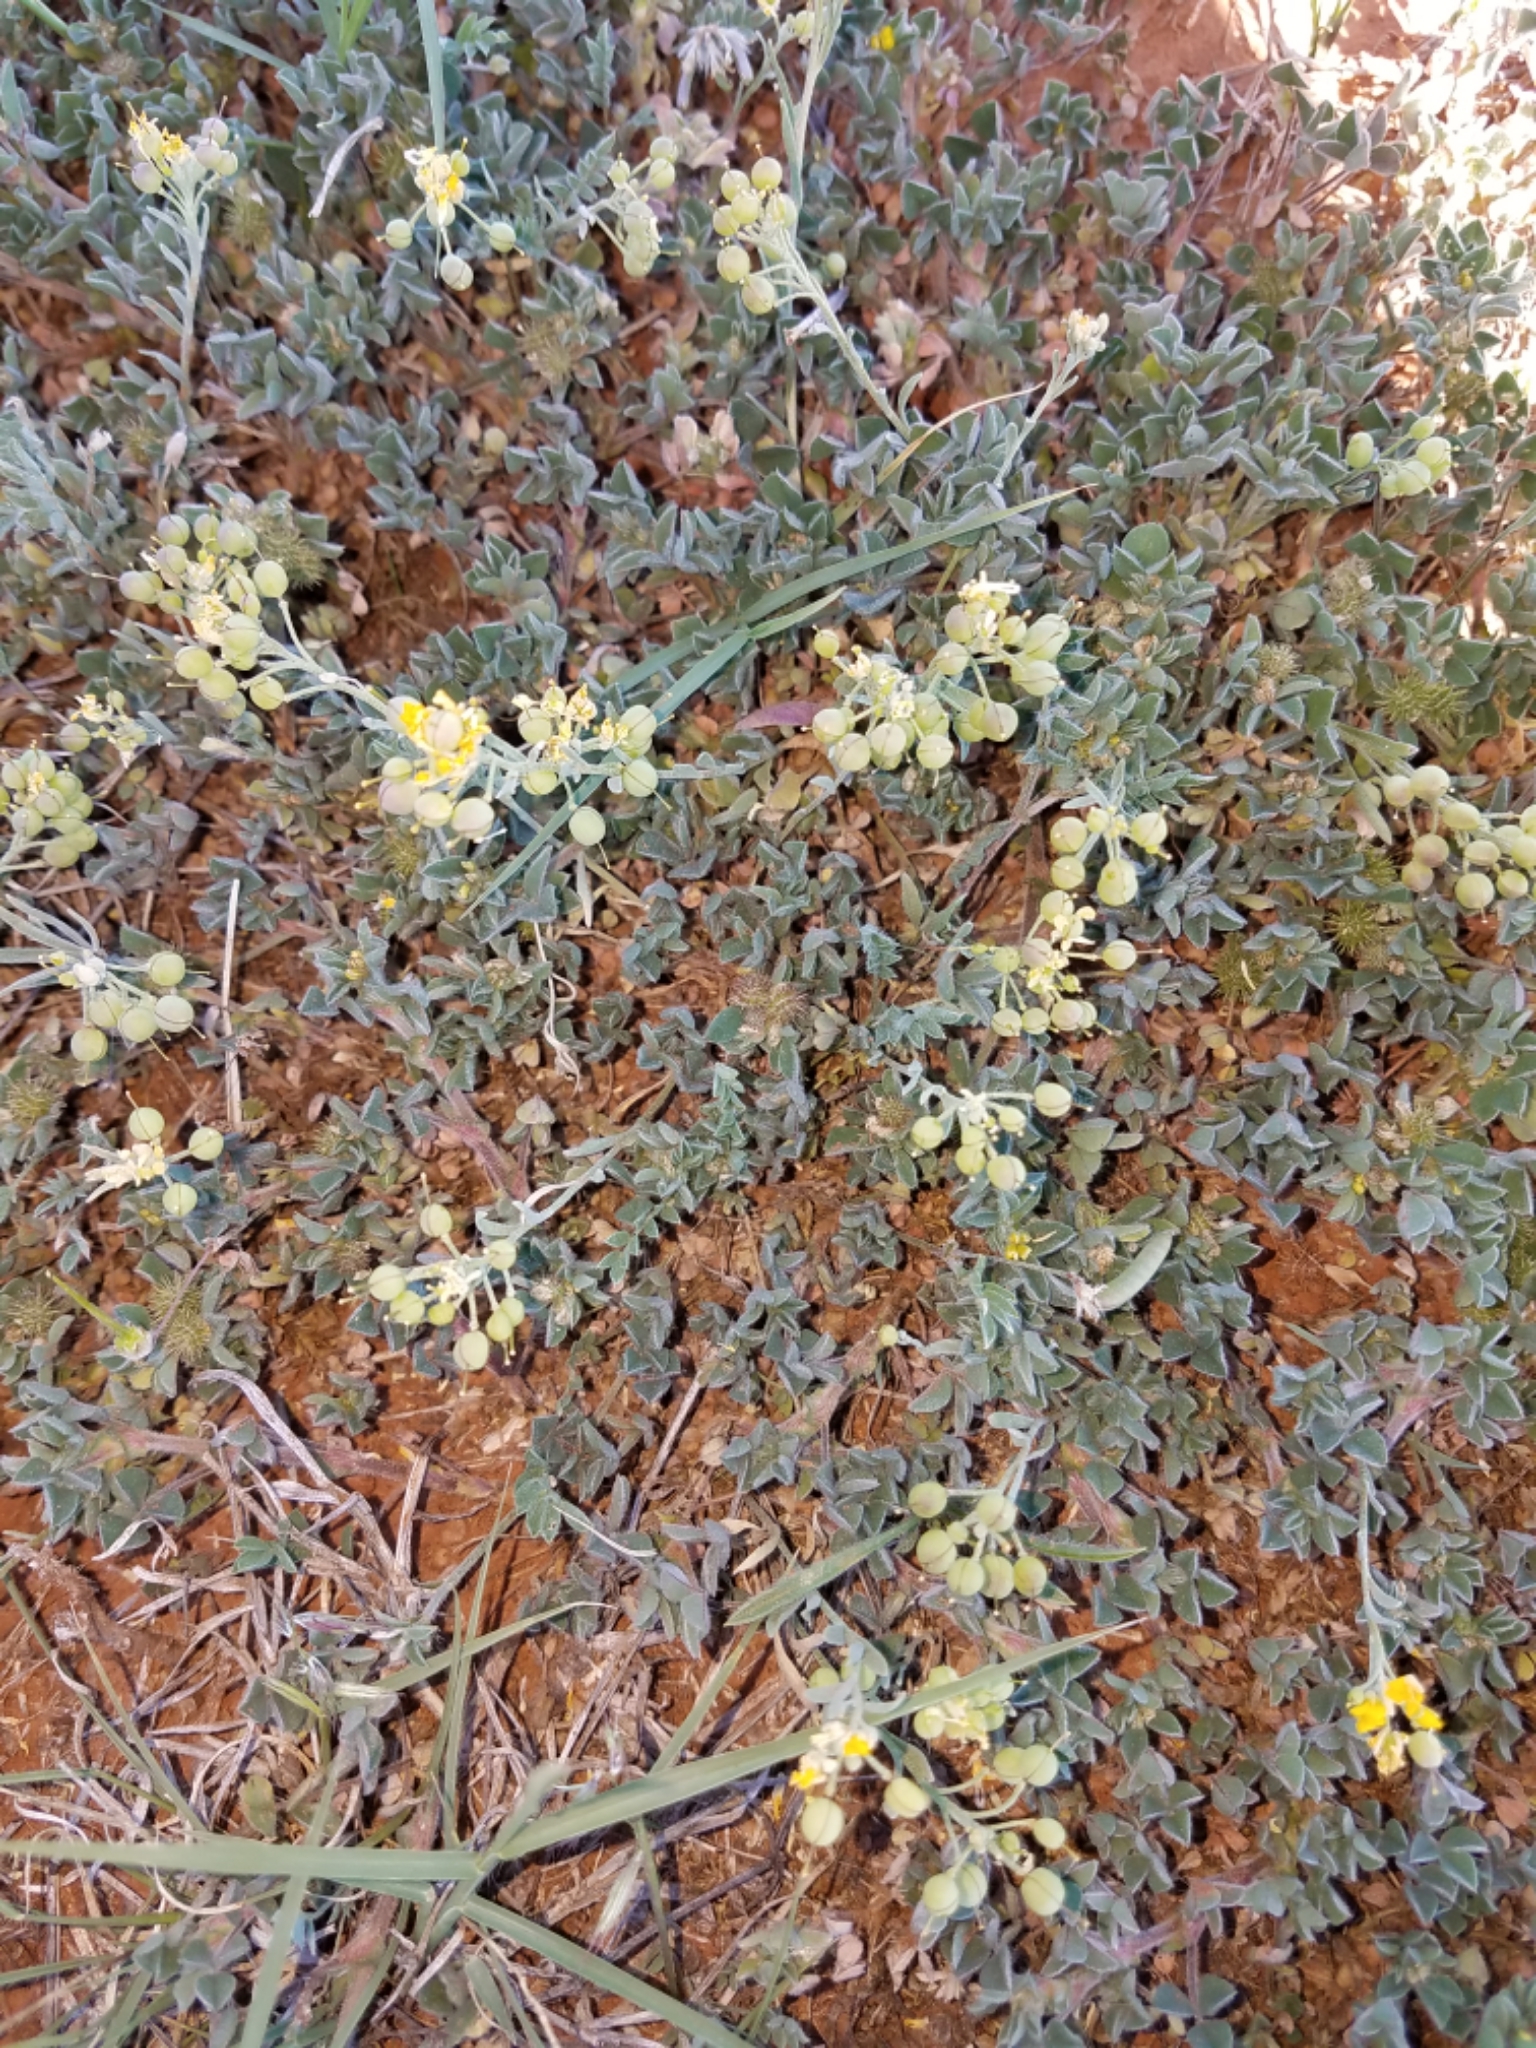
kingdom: Plantae
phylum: Tracheophyta
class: Magnoliopsida
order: Brassicales
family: Brassicaceae
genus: Physaria
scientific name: Physaria gordonii
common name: Gordon's bladderpod
